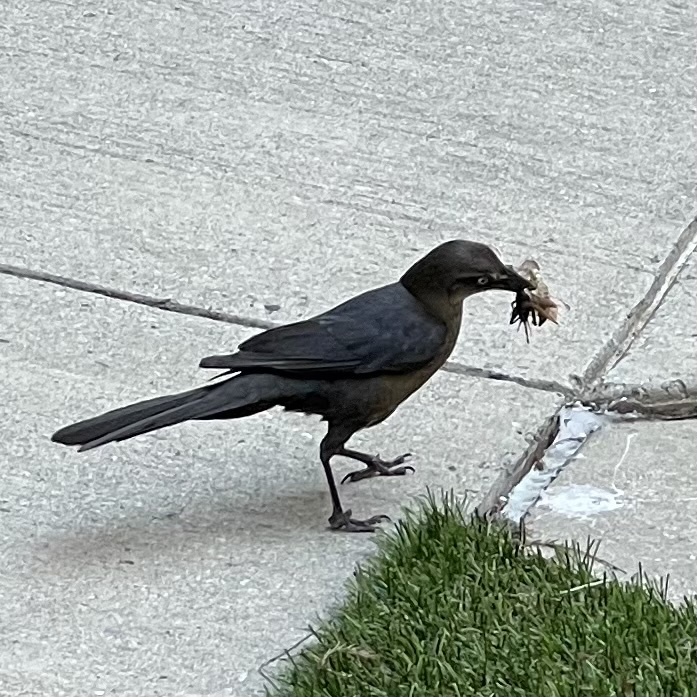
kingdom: Animalia
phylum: Chordata
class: Aves
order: Passeriformes
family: Icteridae
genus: Quiscalus
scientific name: Quiscalus mexicanus
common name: Great-tailed grackle
